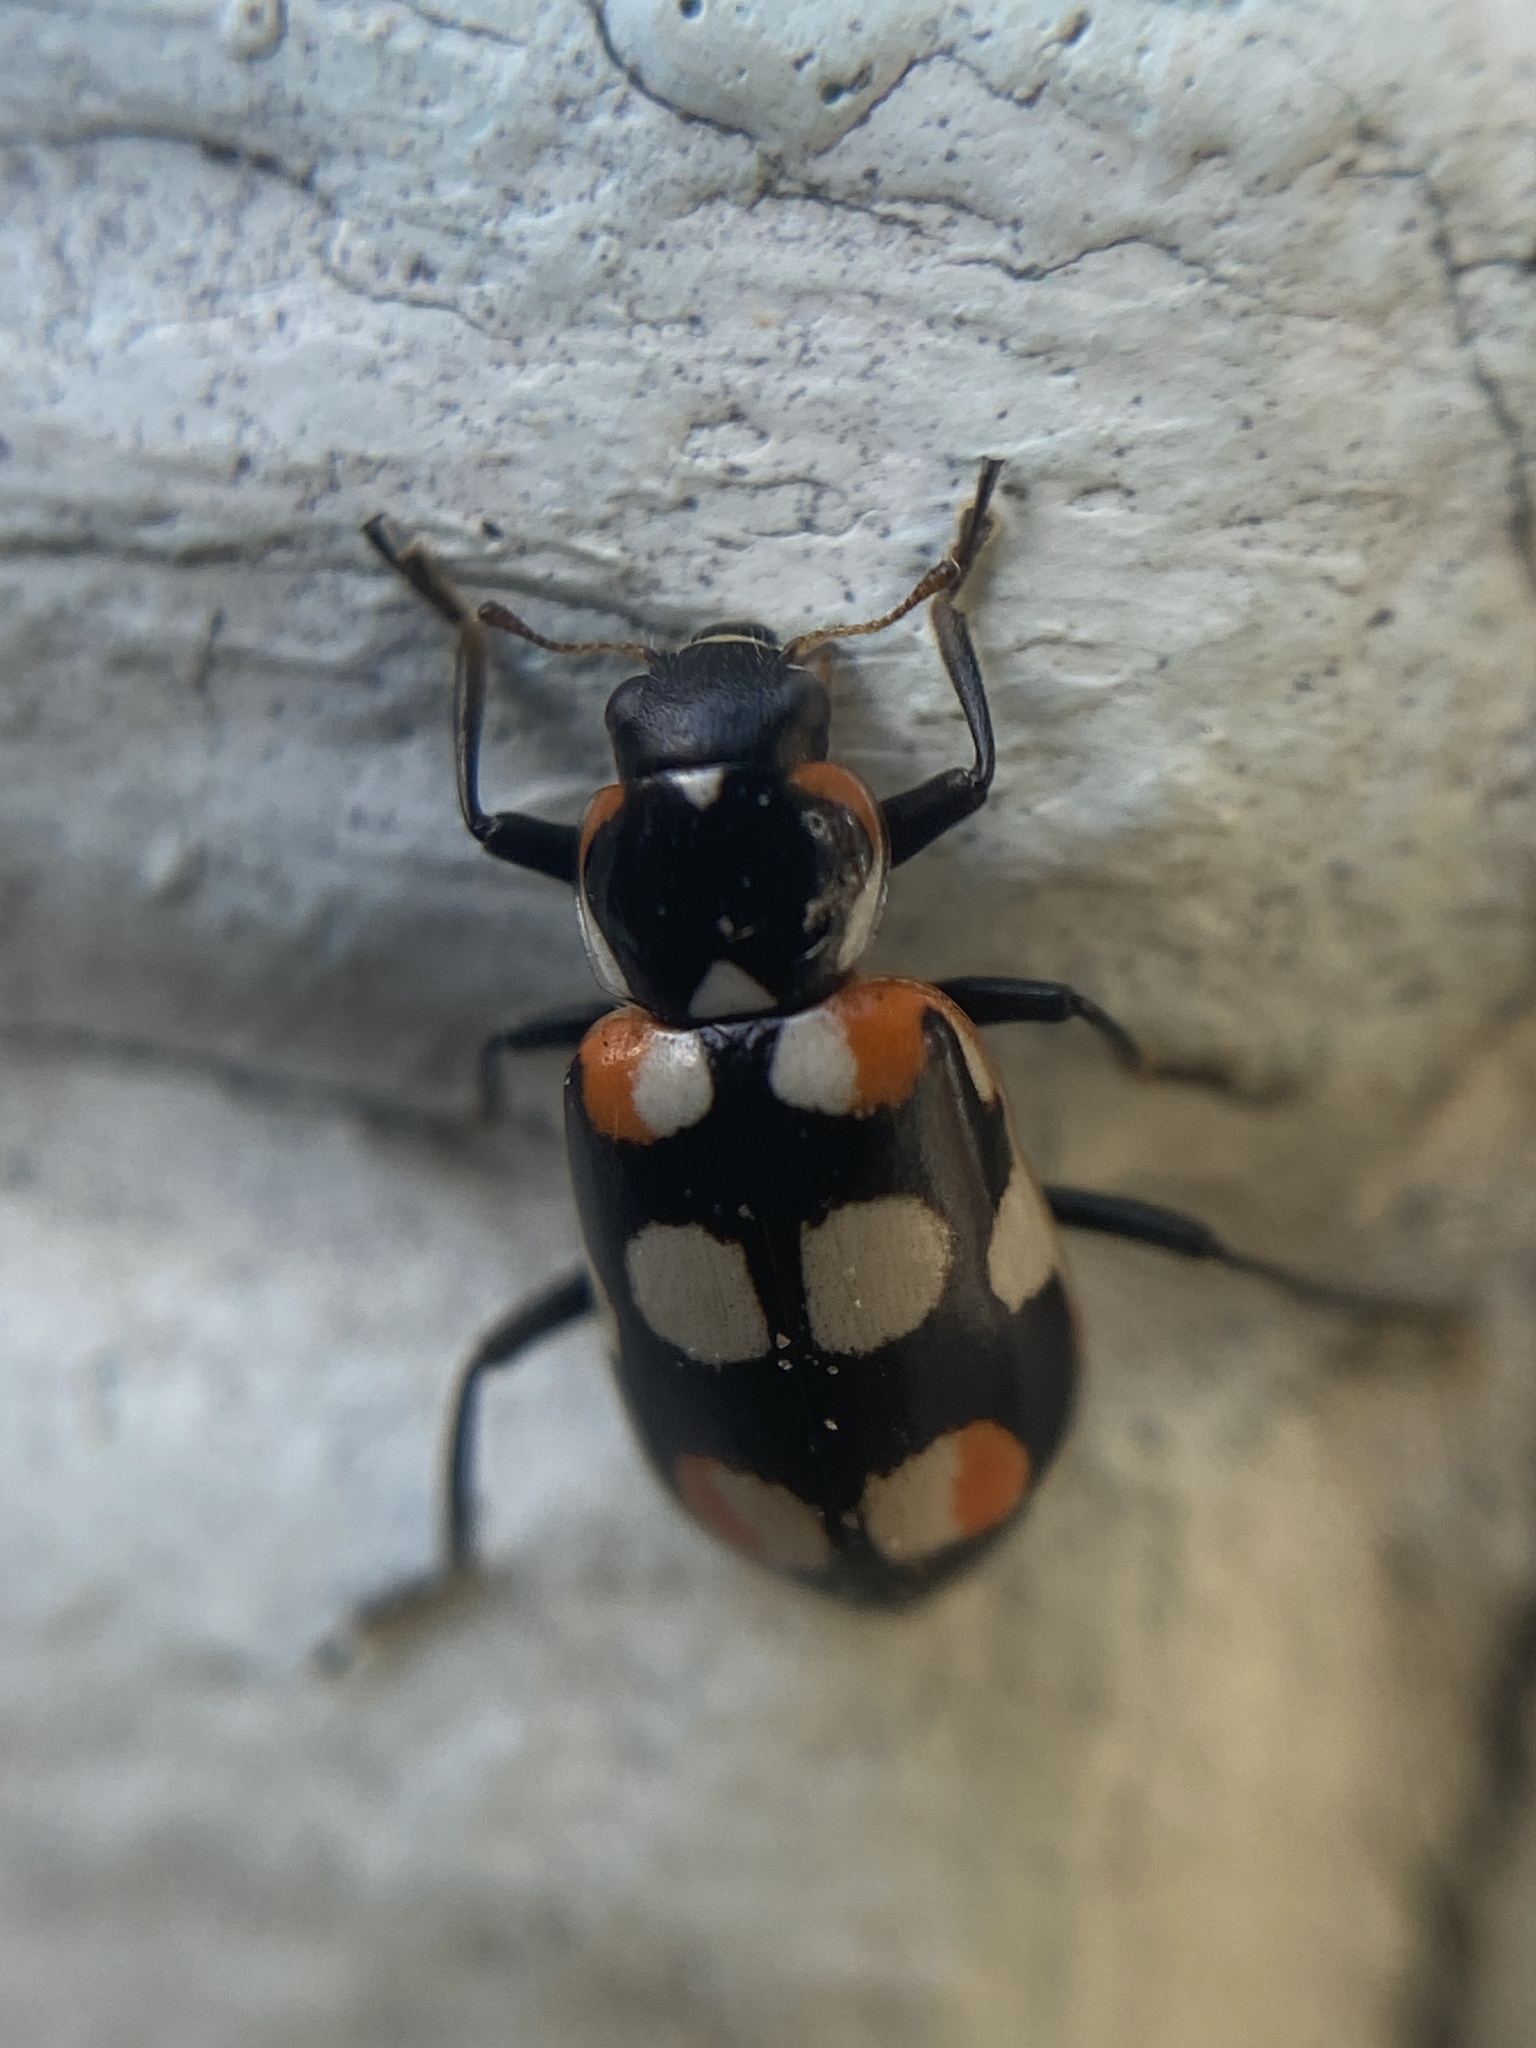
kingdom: Animalia
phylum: Arthropoda
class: Insecta
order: Coleoptera
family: Coccinellidae
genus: Eriopis
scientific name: Eriopis connexa
